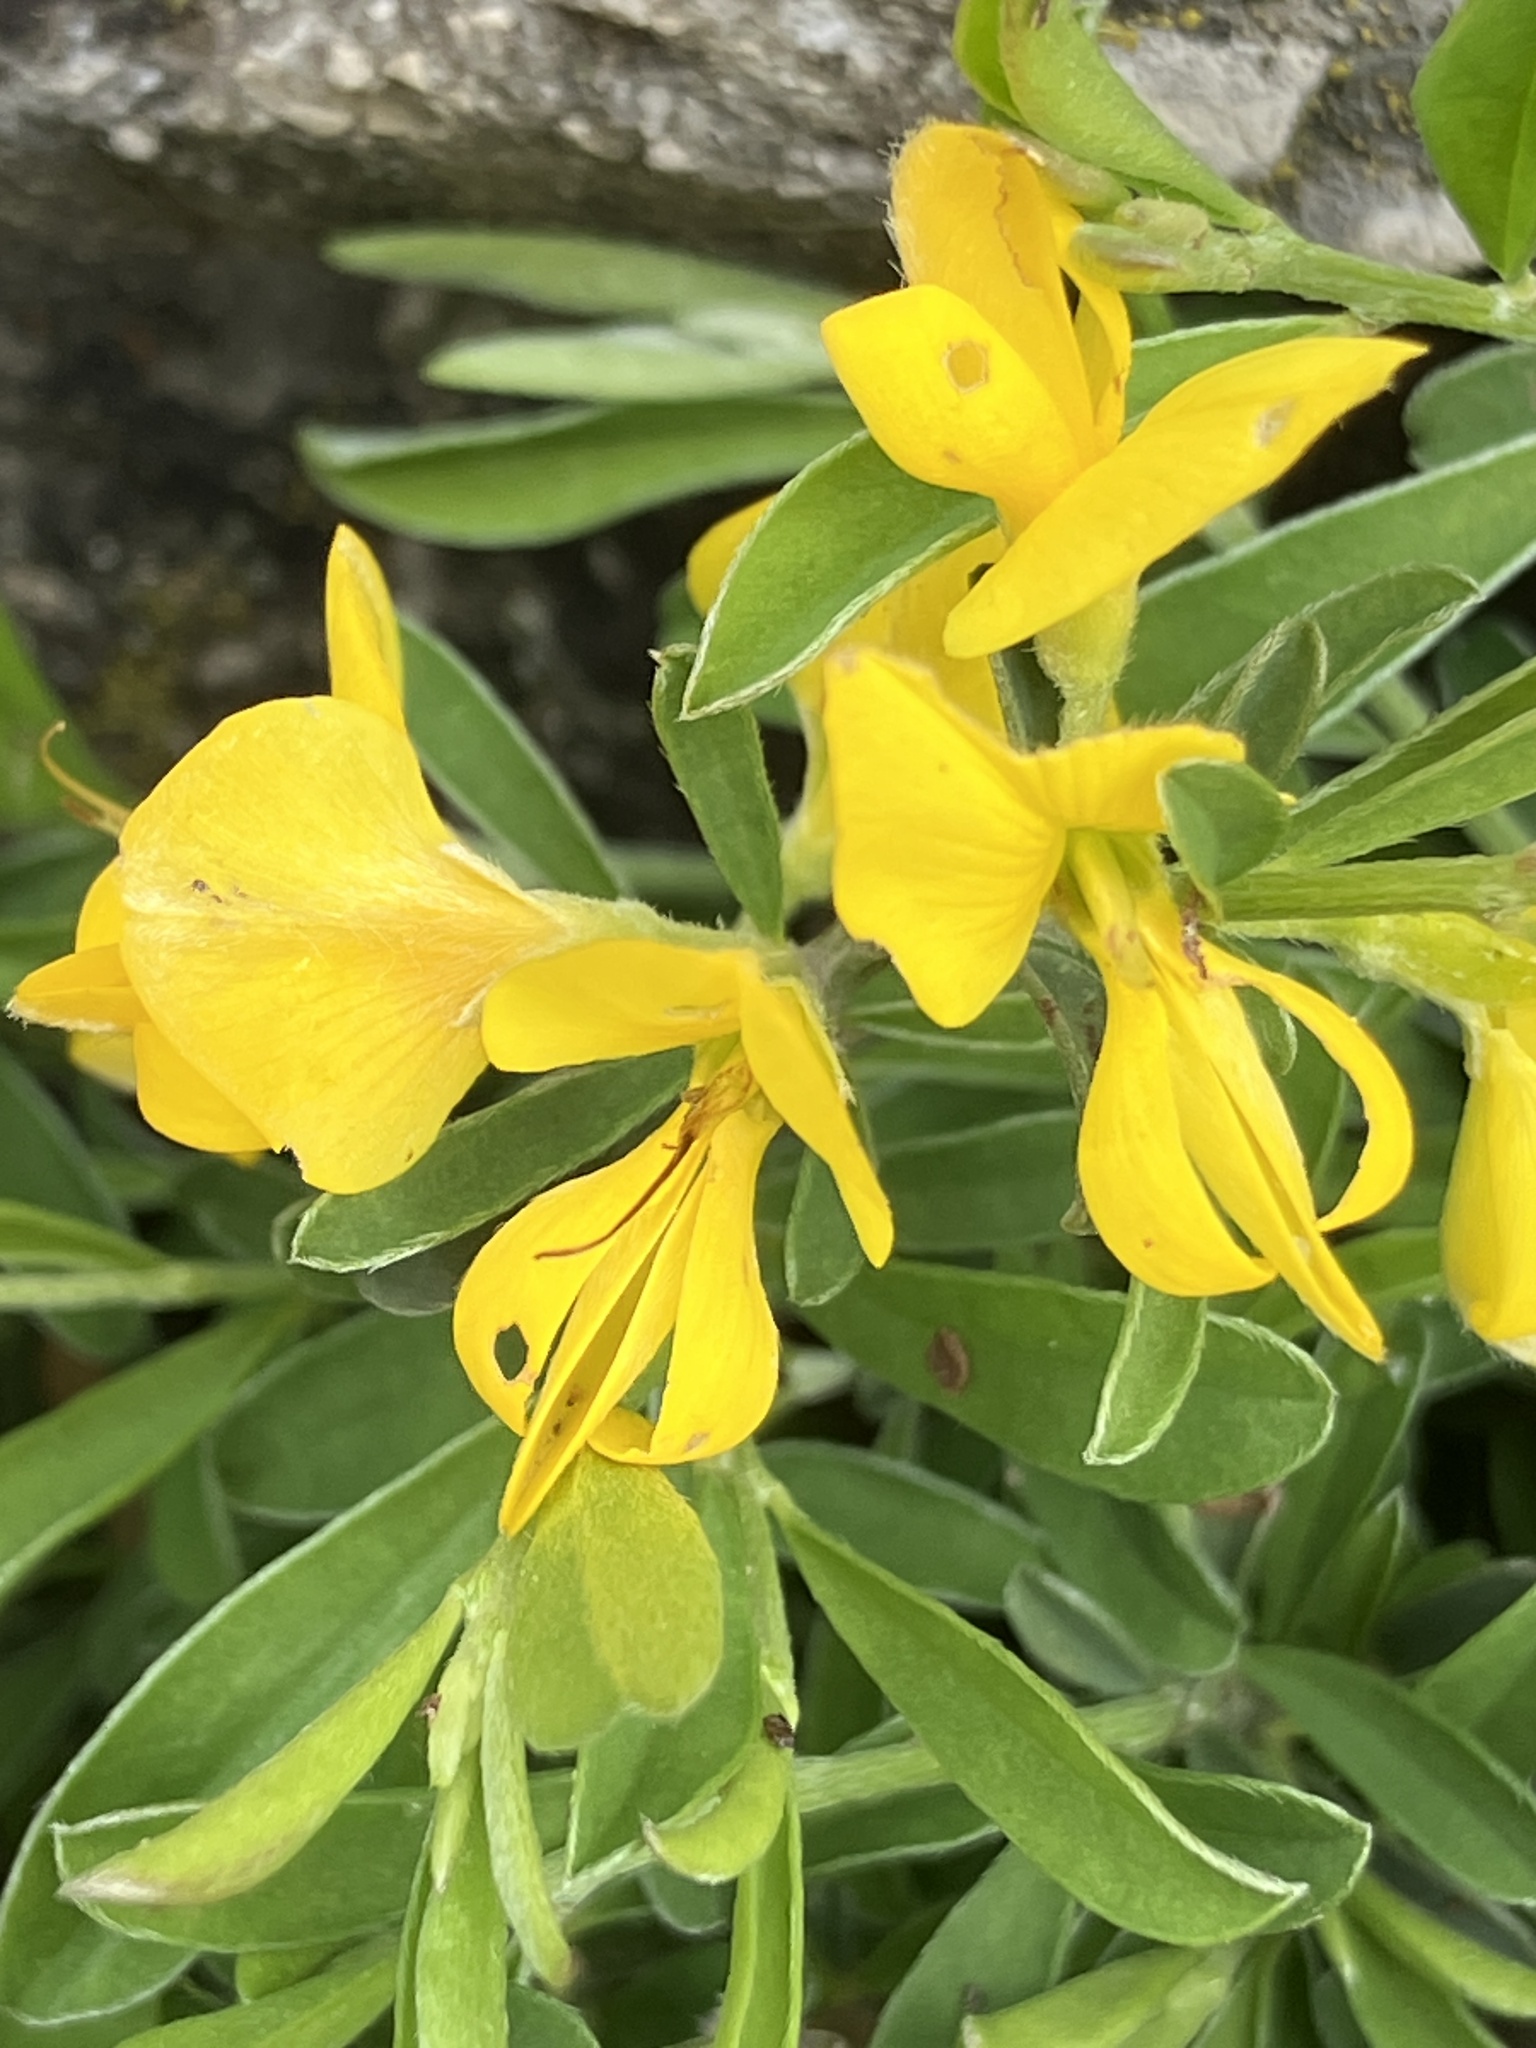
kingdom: Plantae
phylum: Tracheophyta
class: Magnoliopsida
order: Fabales
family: Fabaceae
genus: Genista
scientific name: Genista pilosa
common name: Hairy greenweed
